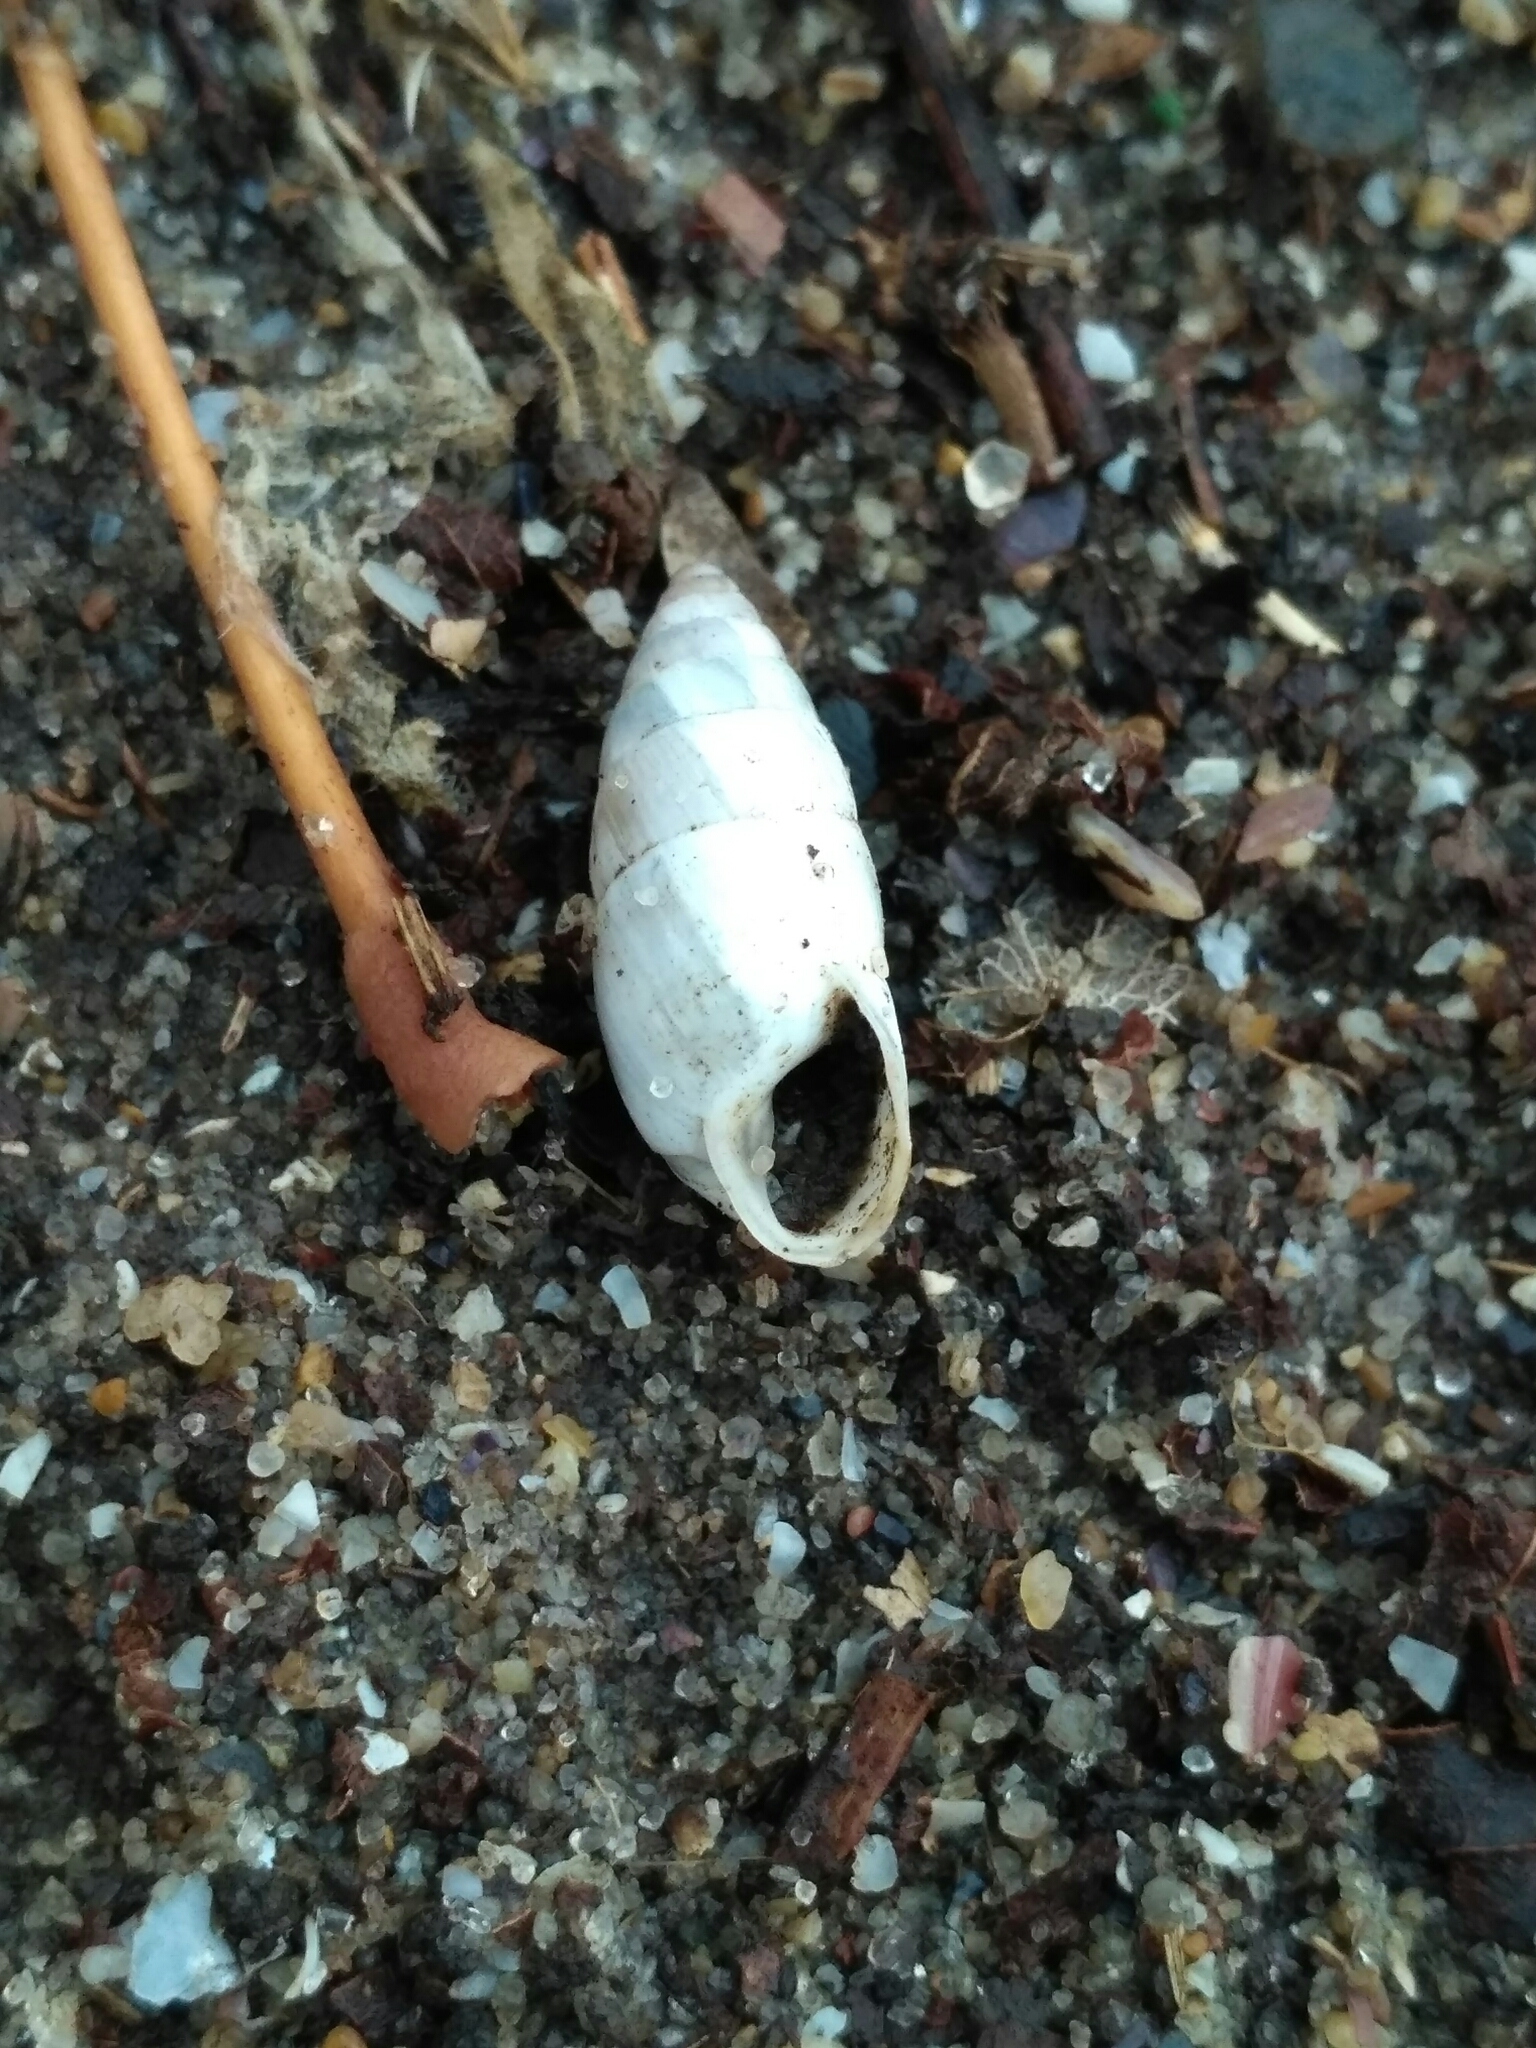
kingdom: Animalia
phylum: Mollusca
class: Gastropoda
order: Stylommatophora
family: Enidae
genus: Brephulopsis
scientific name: Brephulopsis cylindrica
